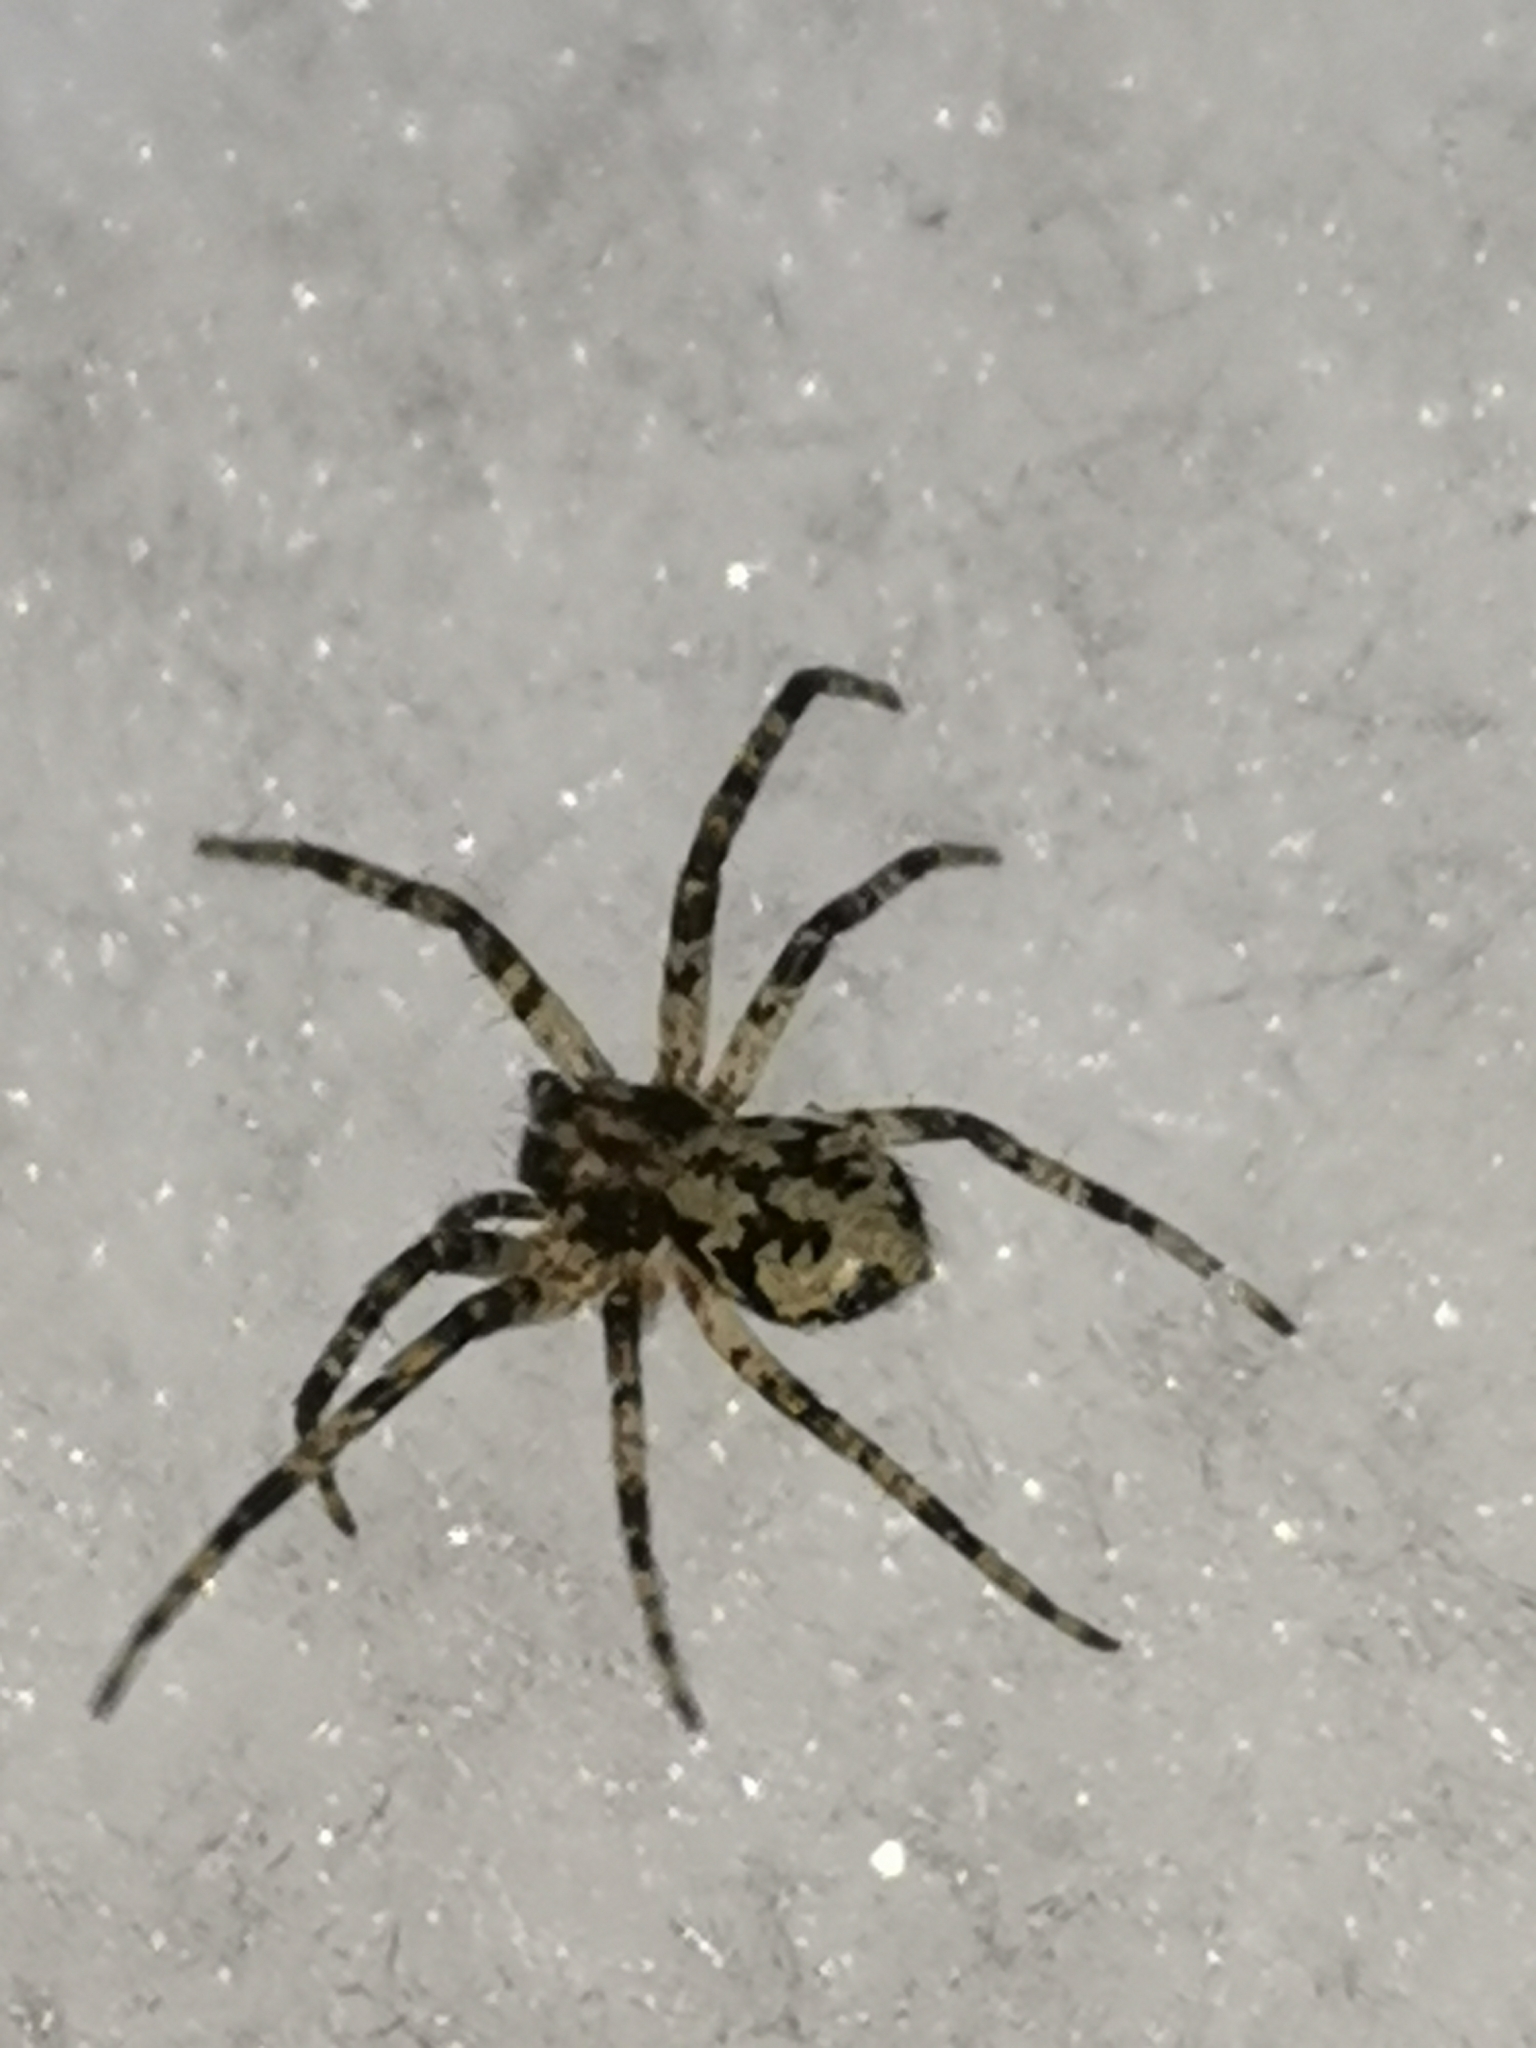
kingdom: Animalia
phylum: Arthropoda
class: Arachnida
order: Araneae
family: Philodromidae
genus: Philodromus
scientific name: Philodromus margaritatus
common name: Lichen running-spider
